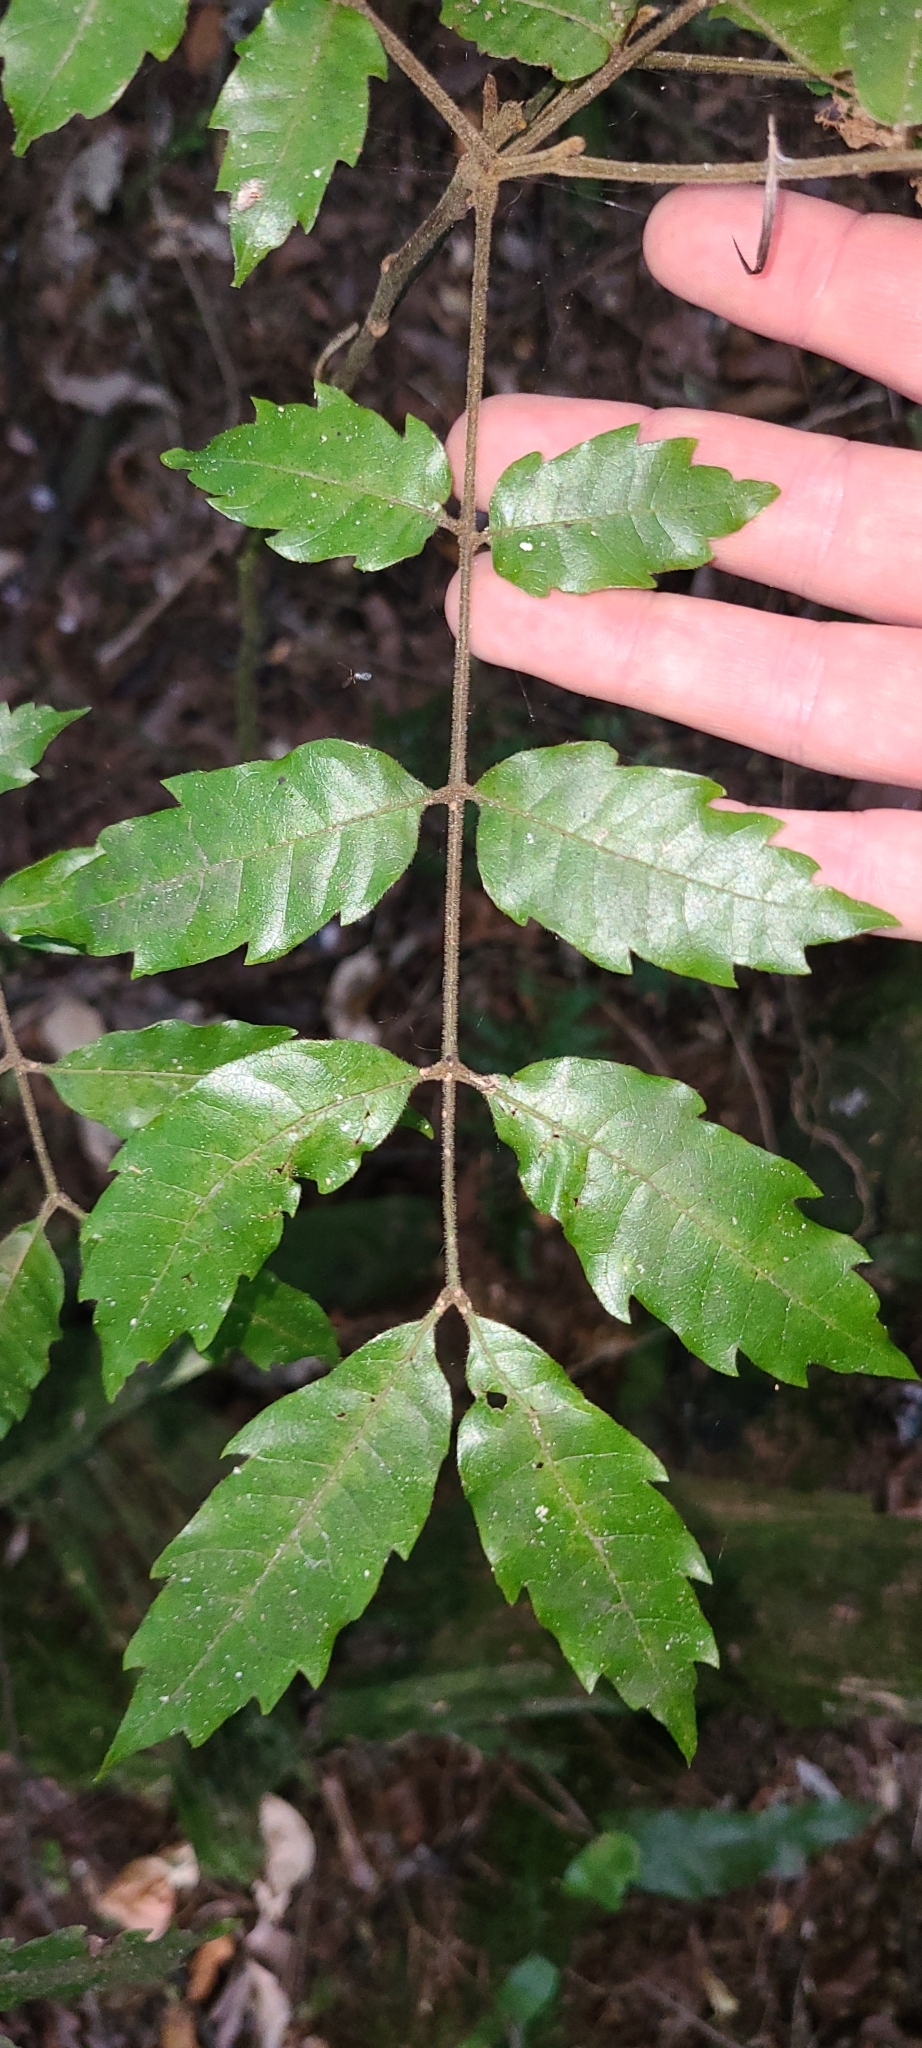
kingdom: Plantae
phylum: Tracheophyta
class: Magnoliopsida
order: Sapindales
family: Sapindaceae
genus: Alectryon
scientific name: Alectryon excelsus
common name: Three kings titoki
